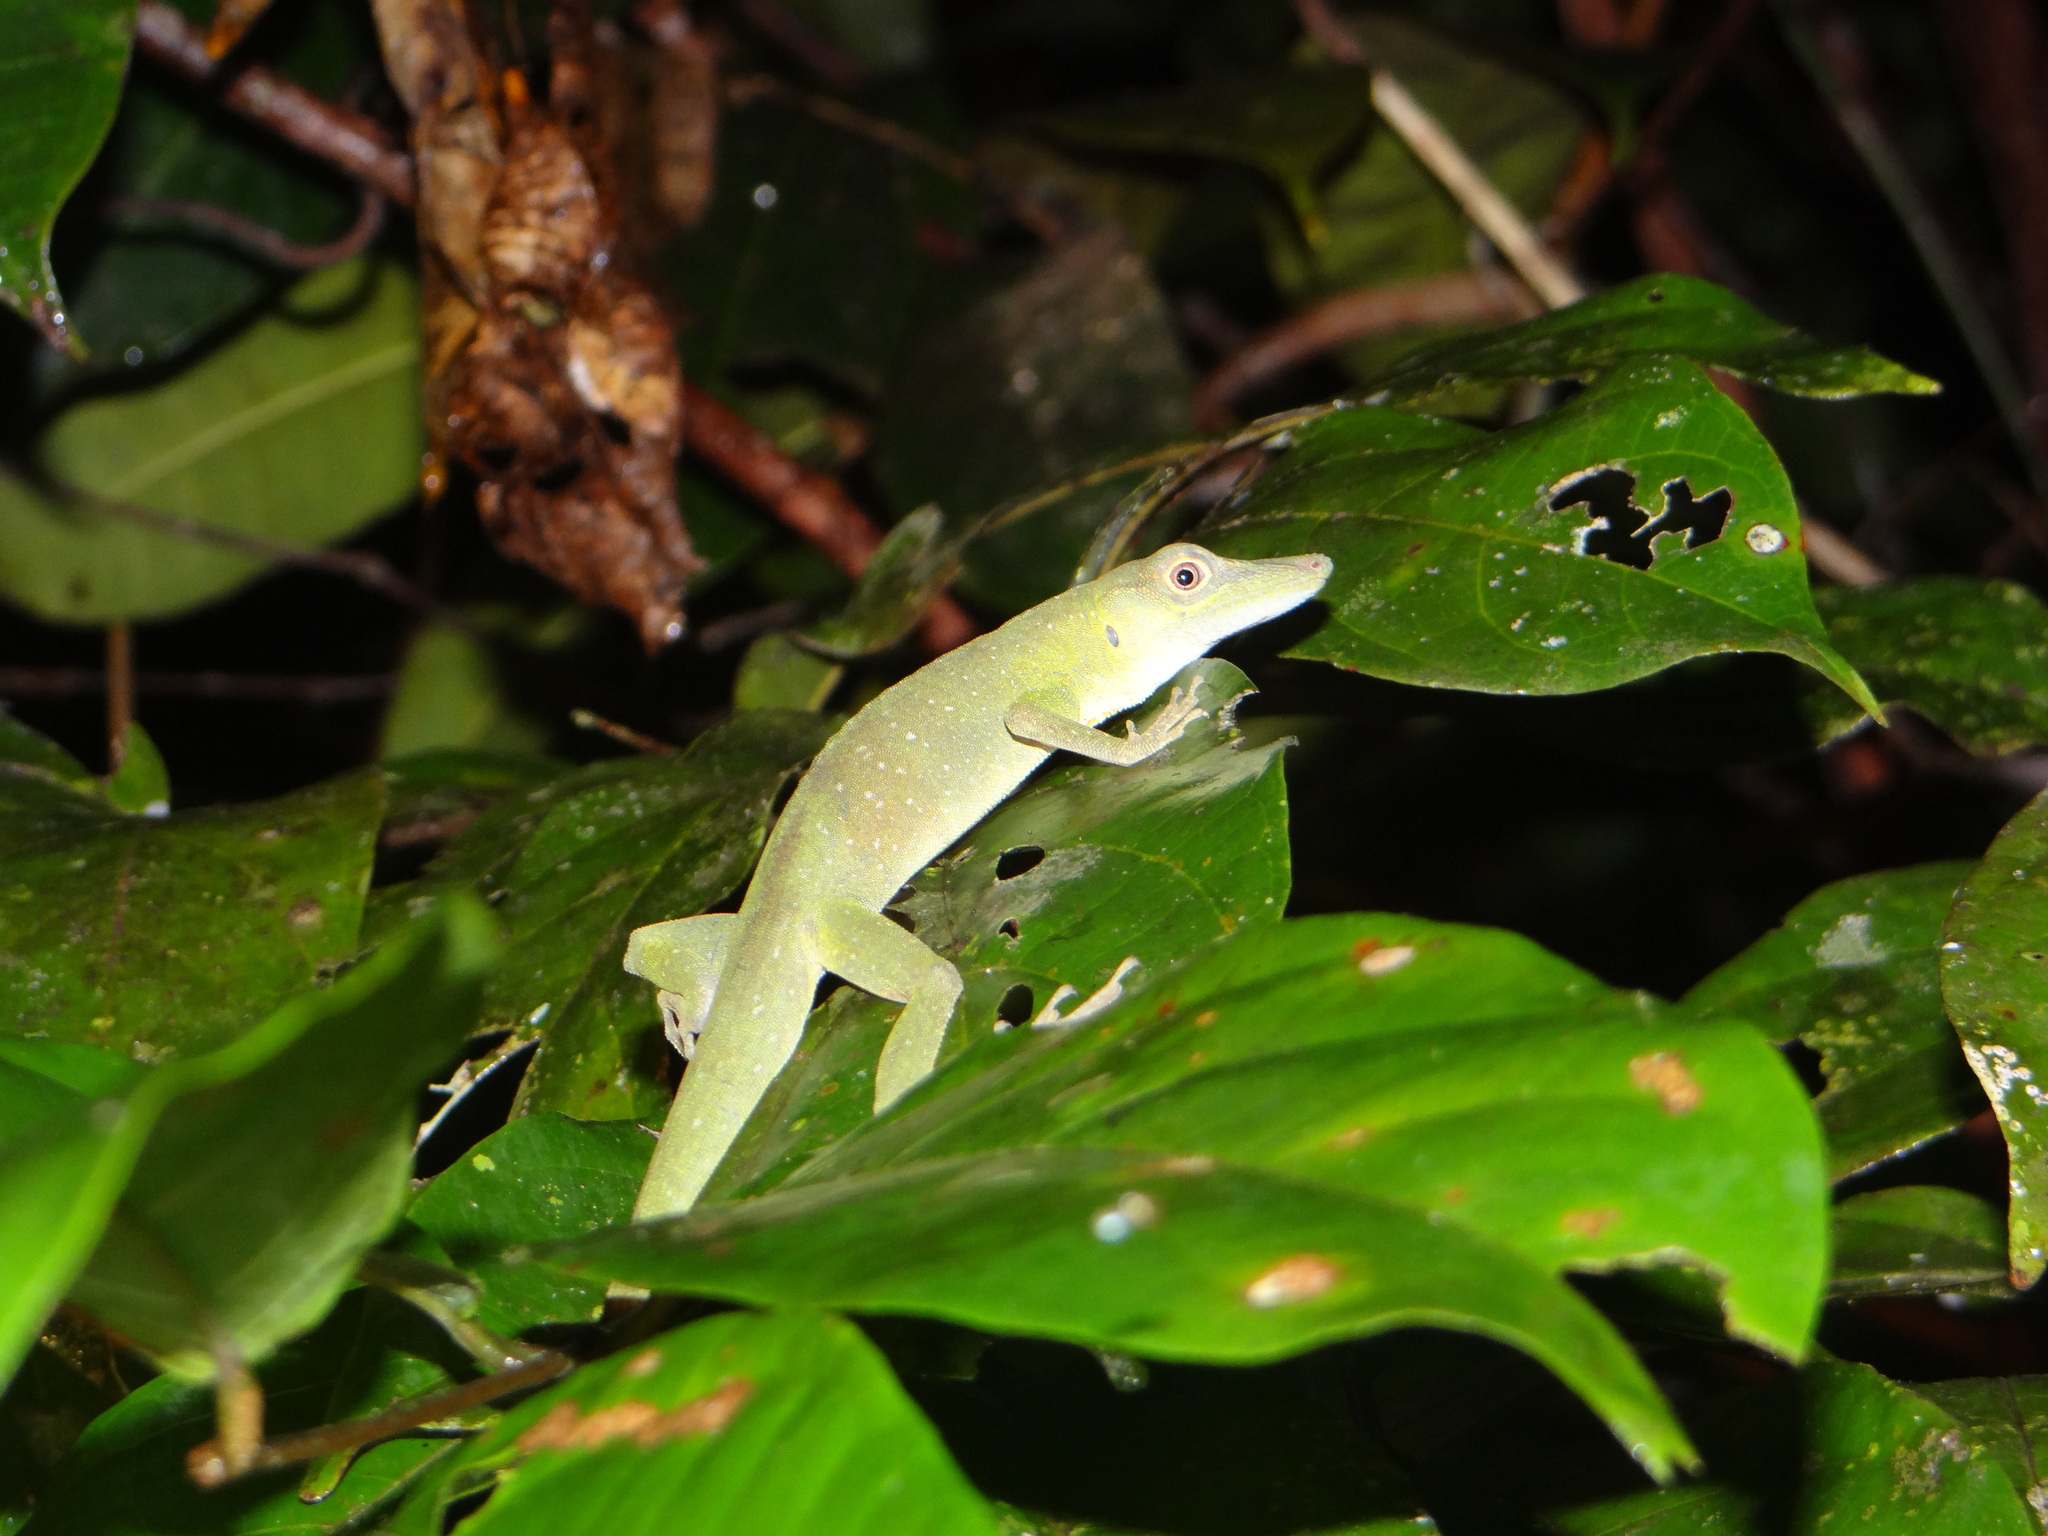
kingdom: Animalia
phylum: Chordata
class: Squamata
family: Dactyloidae
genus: Anolis
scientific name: Anolis punctatus
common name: Amazon green anole
